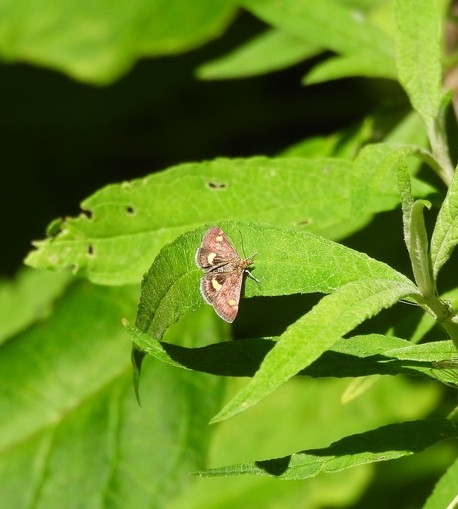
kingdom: Animalia
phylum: Arthropoda
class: Insecta
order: Lepidoptera
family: Crambidae
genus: Pyrausta
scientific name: Pyrausta aurata
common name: Small purple & gold
